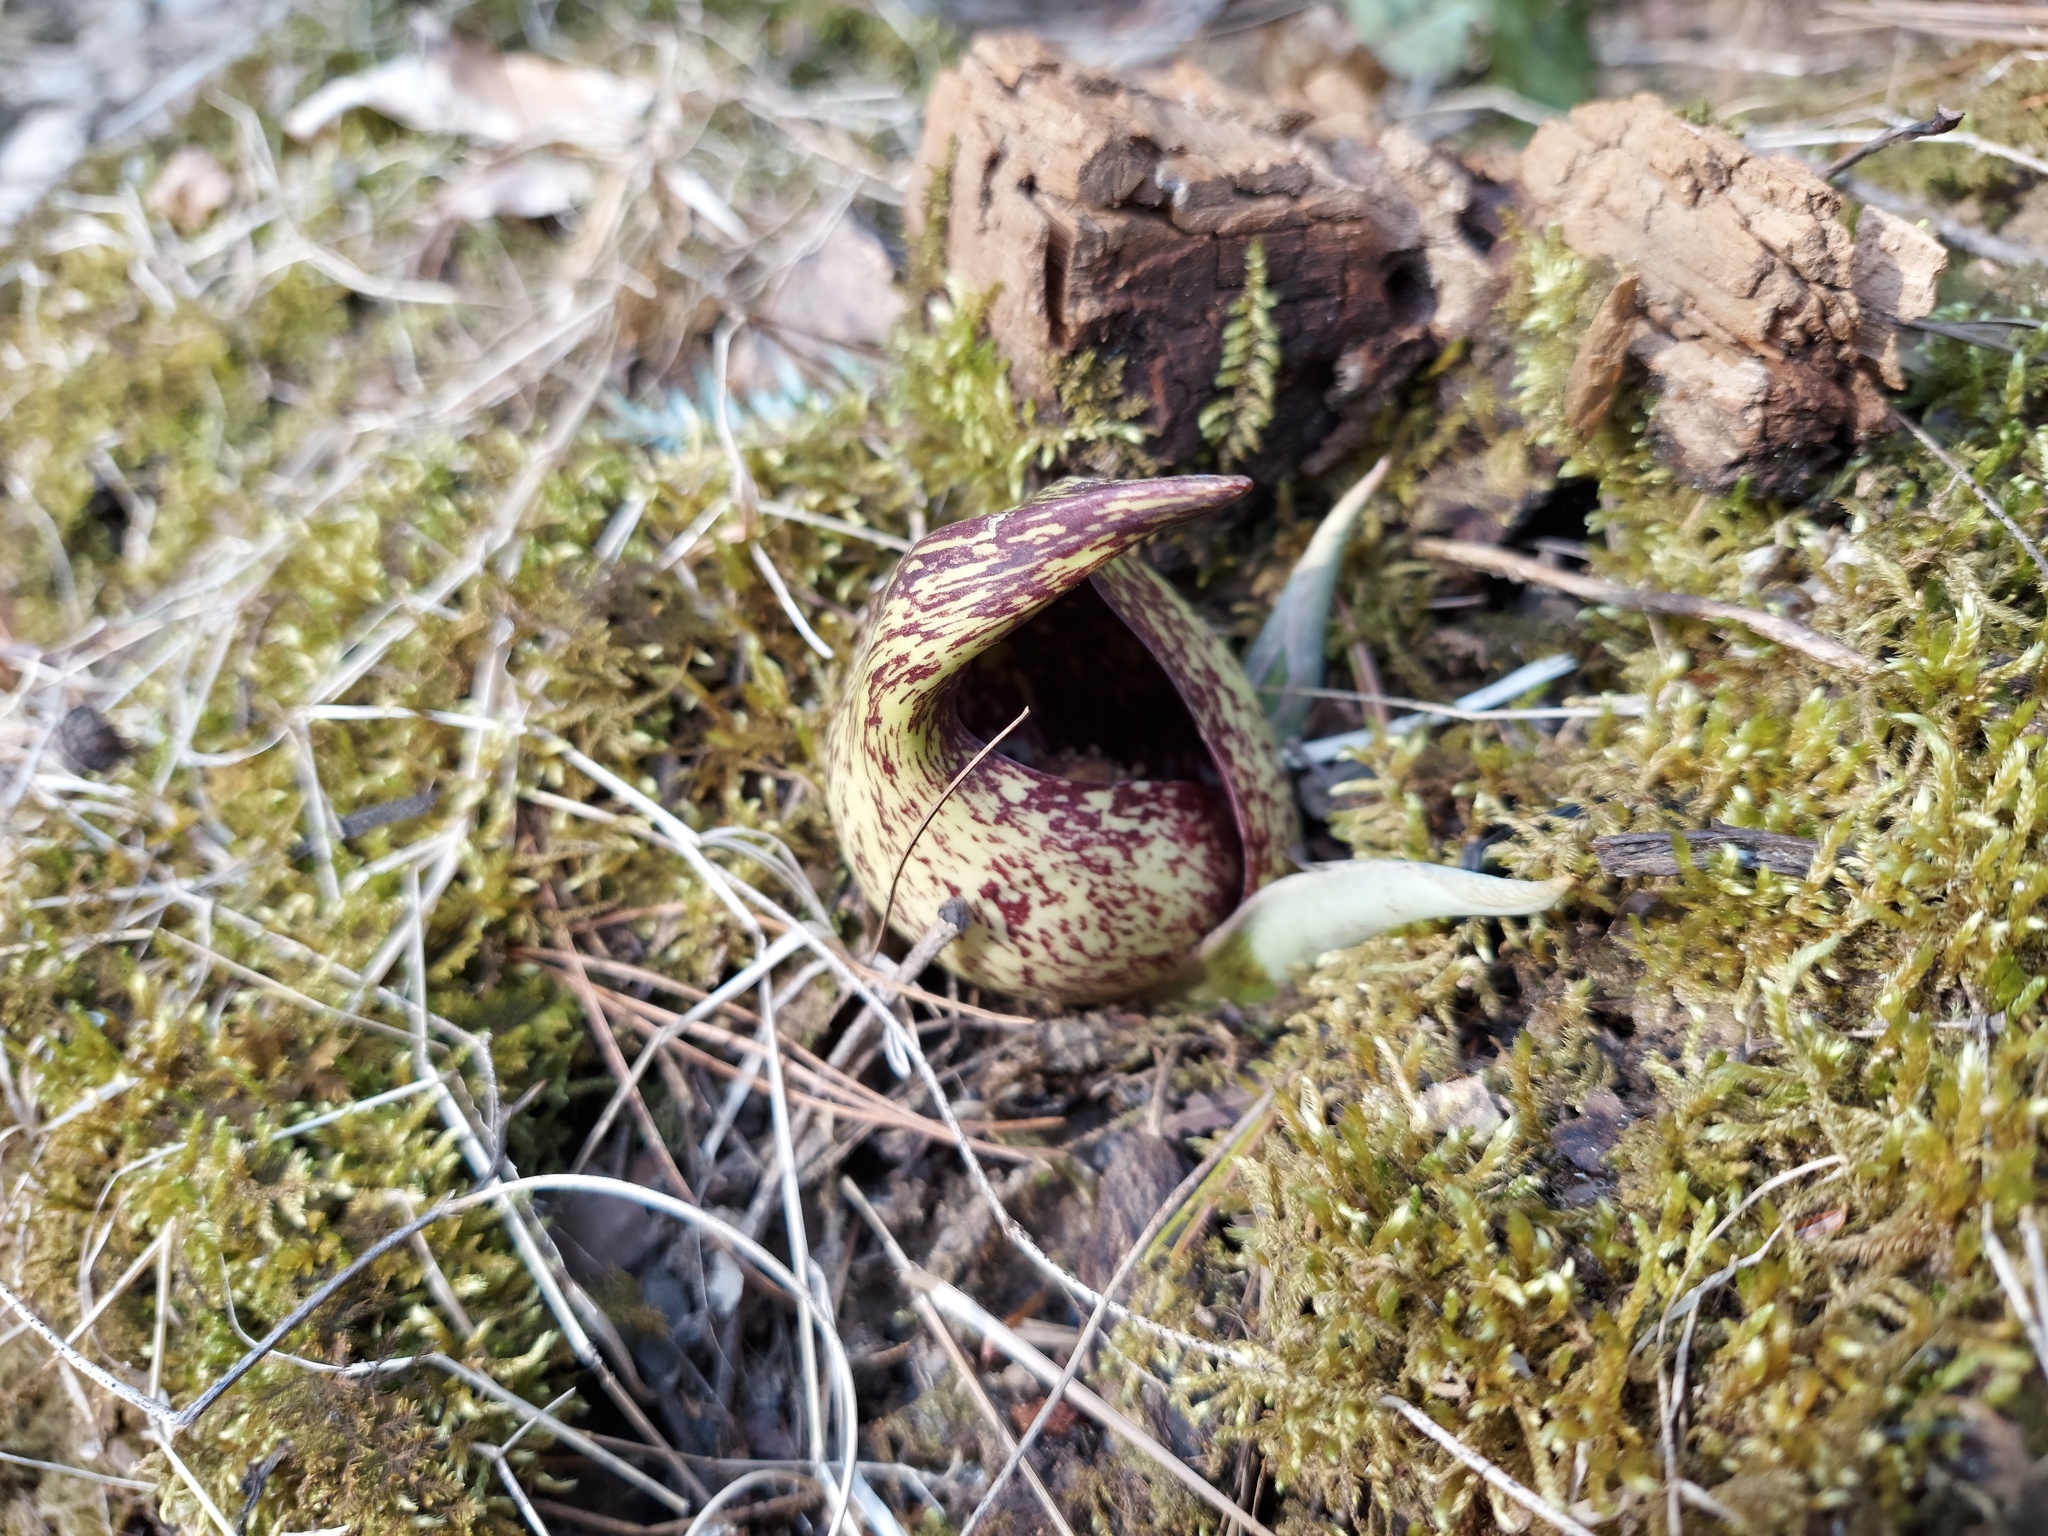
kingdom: Plantae
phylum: Tracheophyta
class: Liliopsida
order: Alismatales
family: Araceae
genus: Symplocarpus
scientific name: Symplocarpus foetidus
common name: Eastern skunk cabbage
